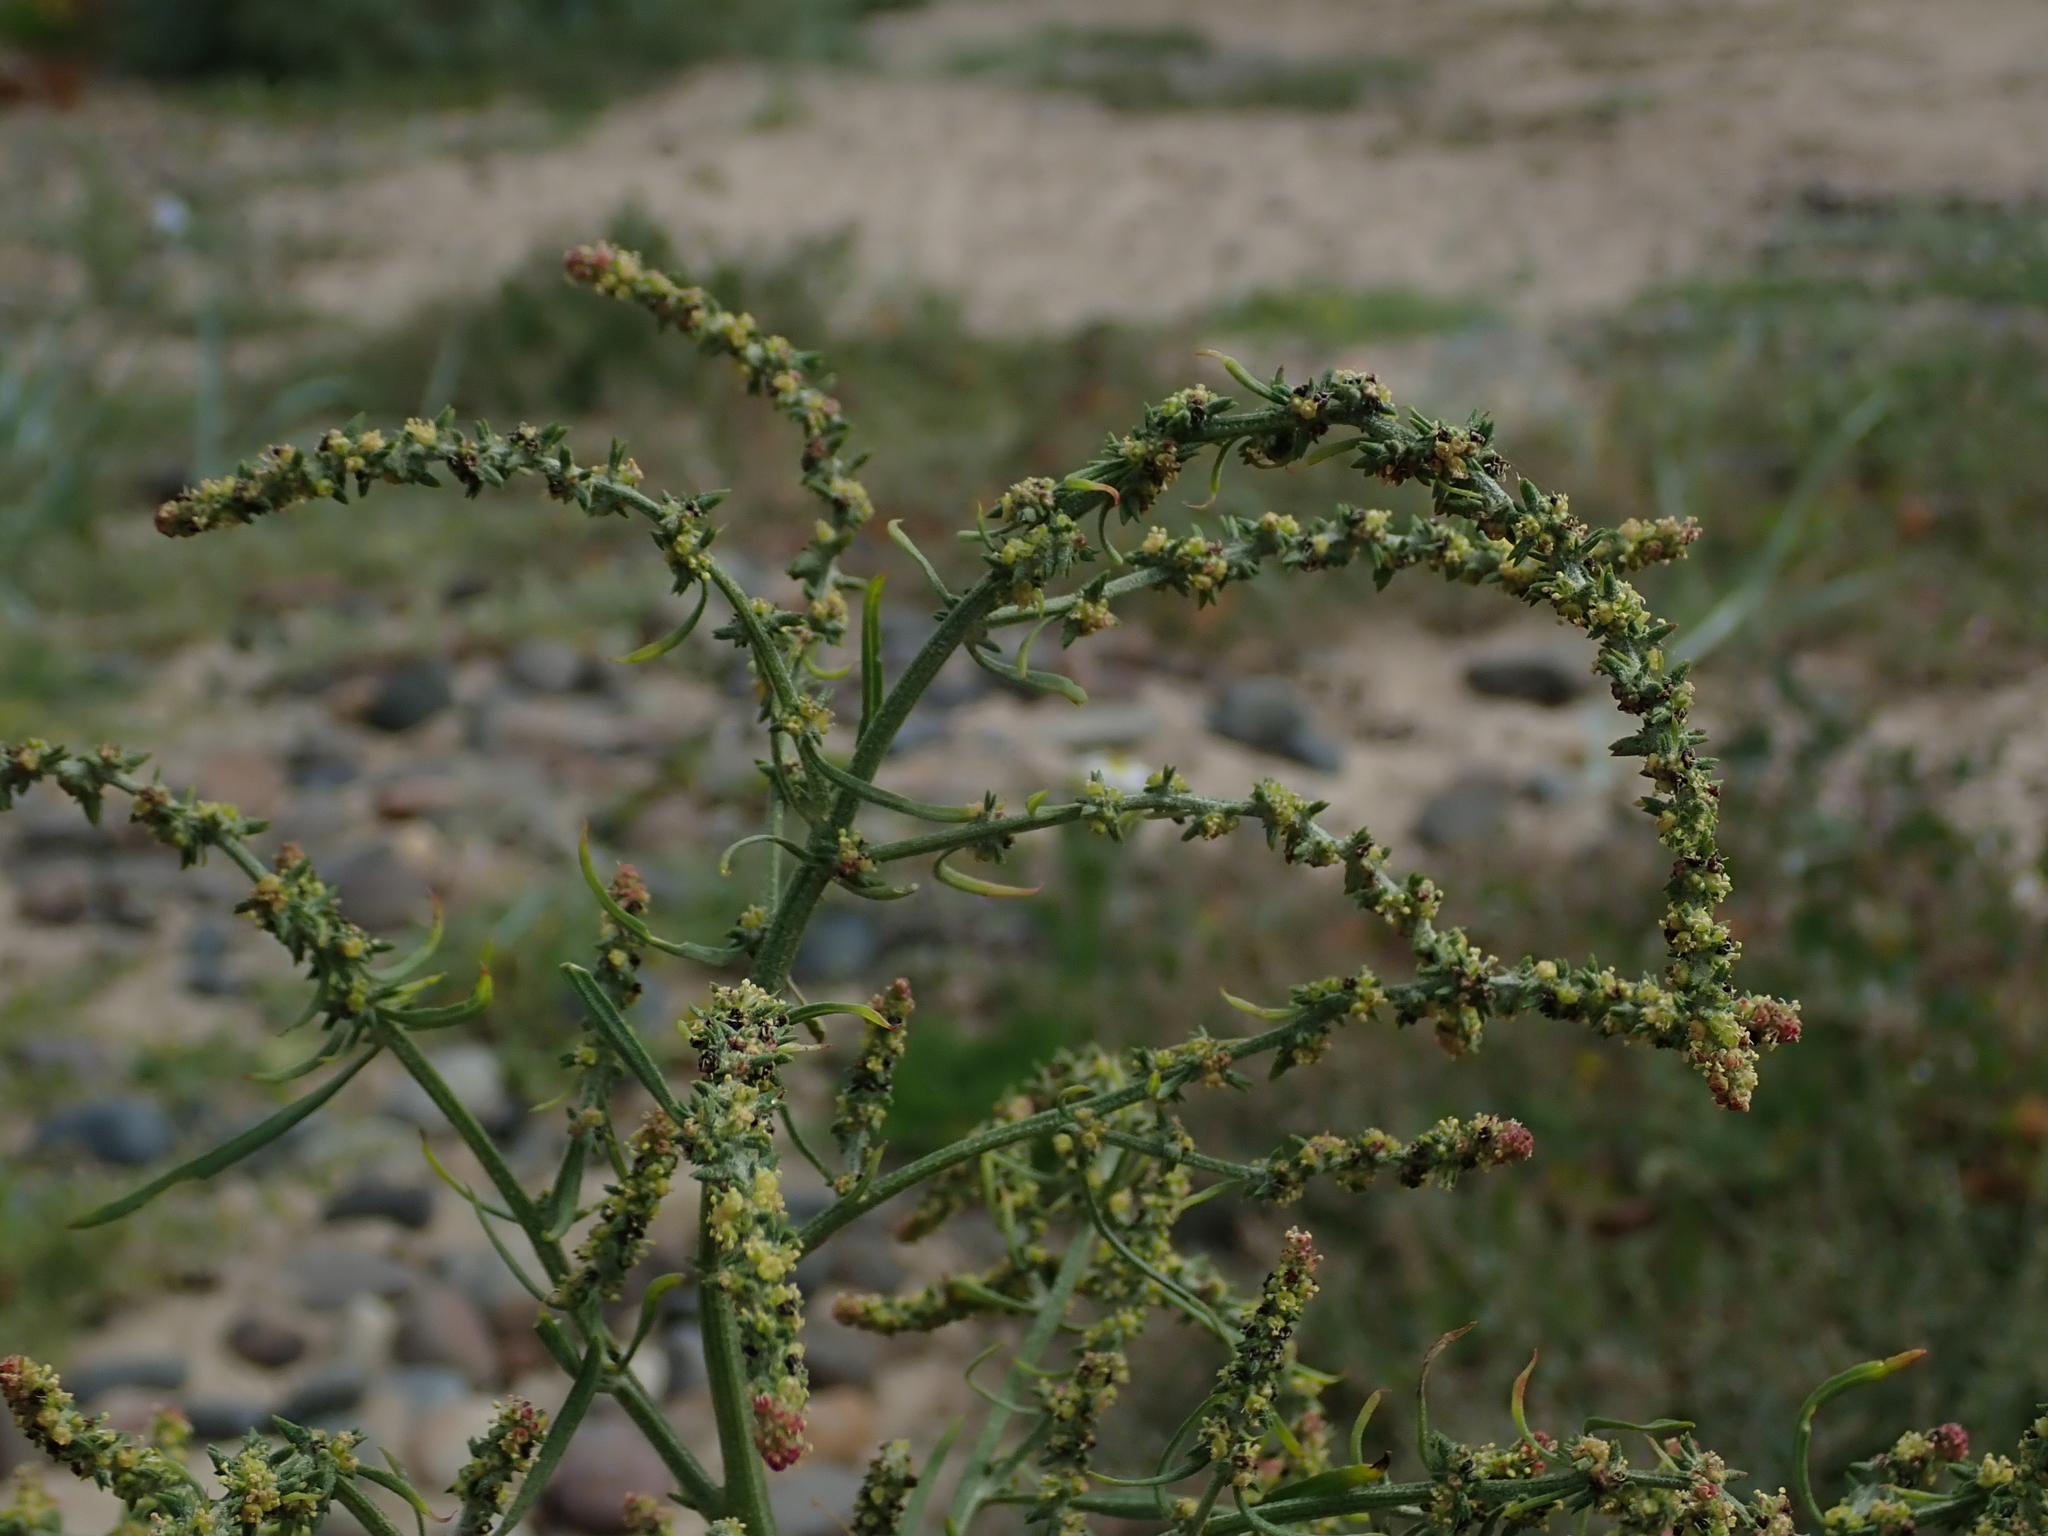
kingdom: Plantae
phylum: Tracheophyta
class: Magnoliopsida
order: Caryophyllales
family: Amaranthaceae
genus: Atriplex
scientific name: Atriplex littoralis
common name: Grass-leaved orache
